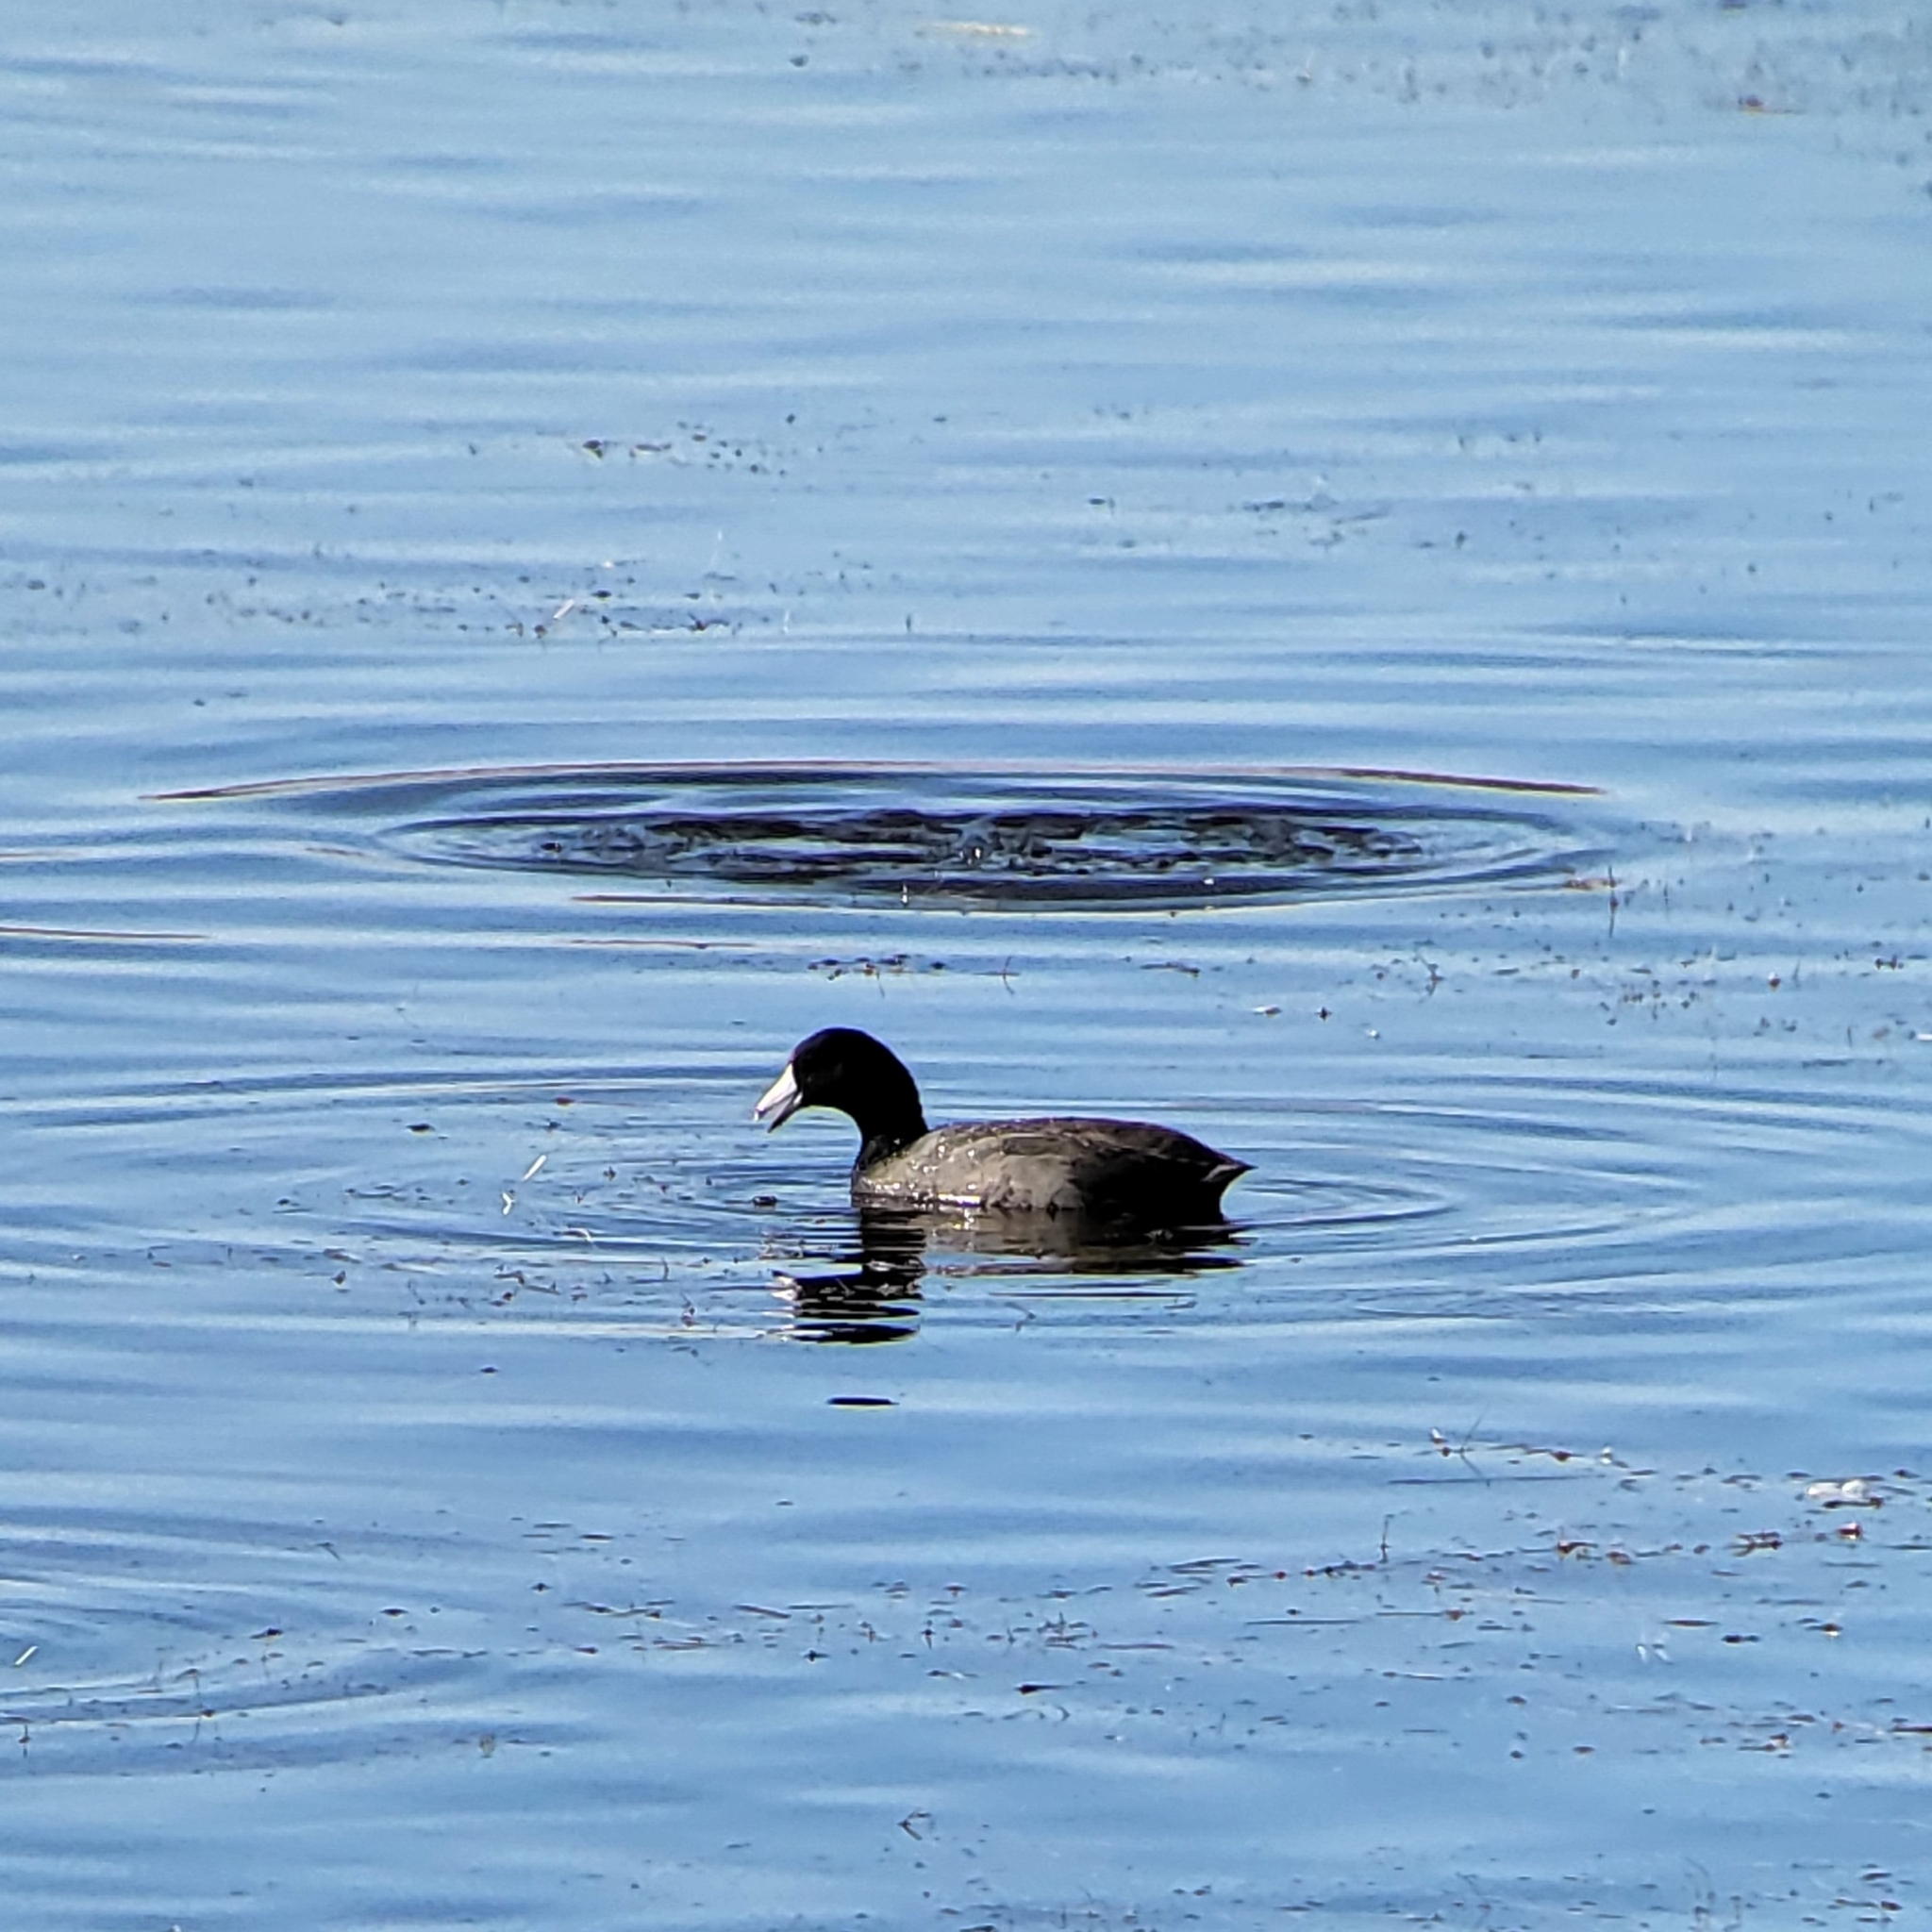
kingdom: Animalia
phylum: Chordata
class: Aves
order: Gruiformes
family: Rallidae
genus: Fulica
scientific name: Fulica americana
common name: American coot
